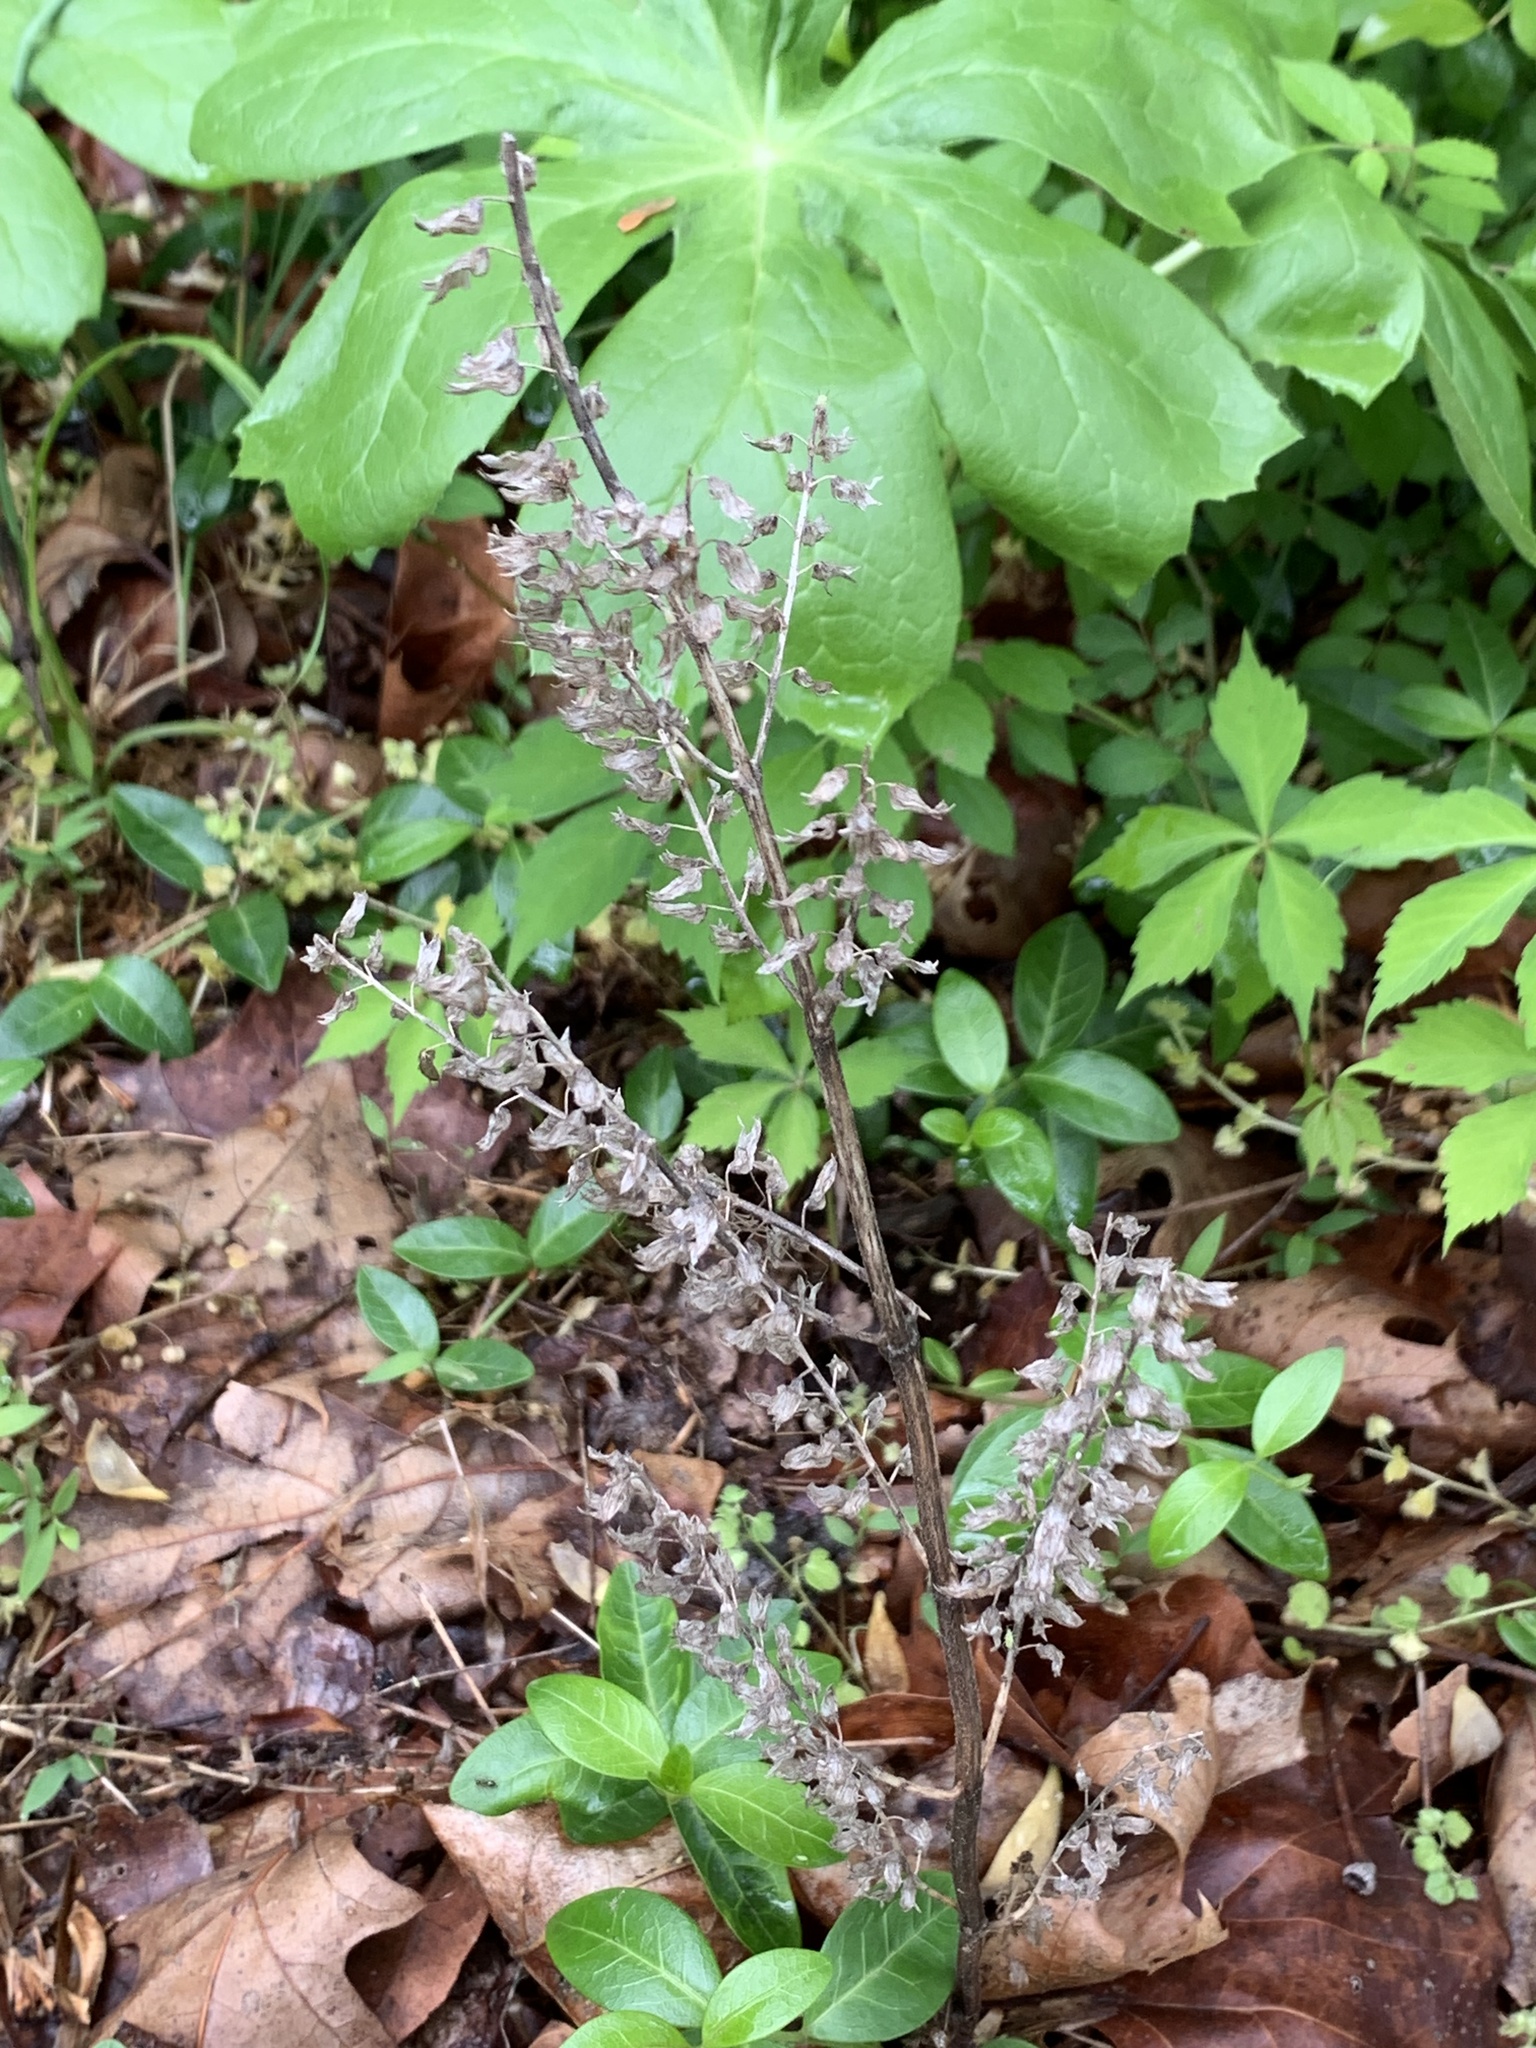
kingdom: Plantae
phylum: Tracheophyta
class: Magnoliopsida
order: Lamiales
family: Lamiaceae
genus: Perilla
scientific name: Perilla frutescens
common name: Perilla
